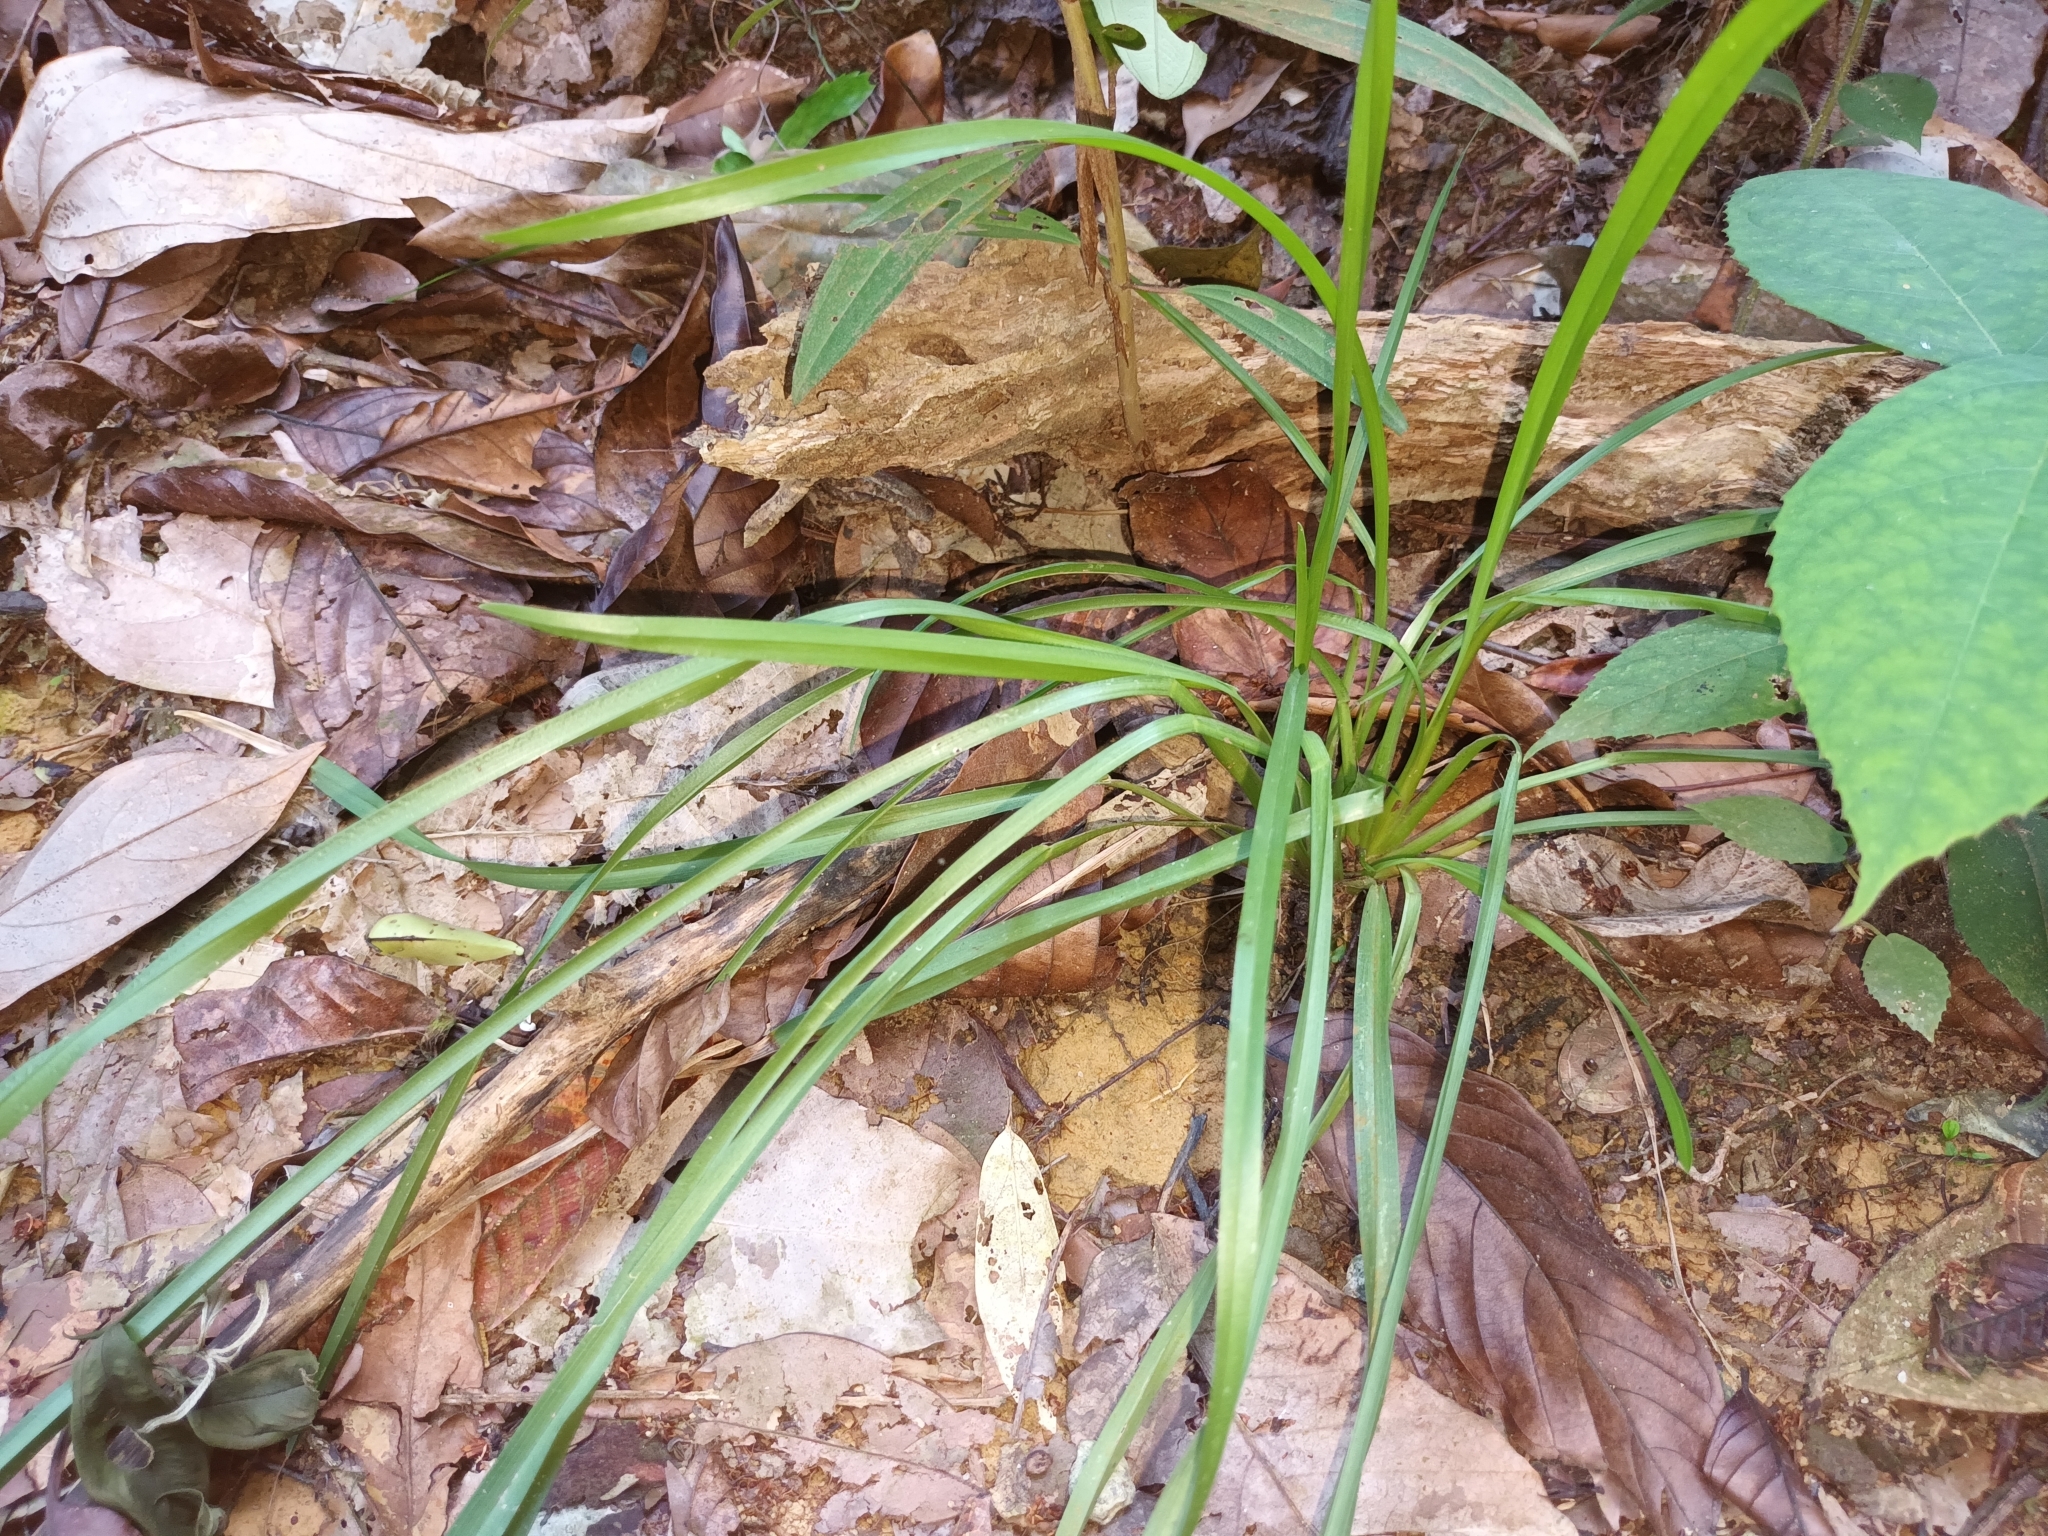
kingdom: Plantae
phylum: Tracheophyta
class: Liliopsida
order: Asparagales
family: Asphodelaceae
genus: Dianella
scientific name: Dianella ensifolia
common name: New zealand lilyplant
